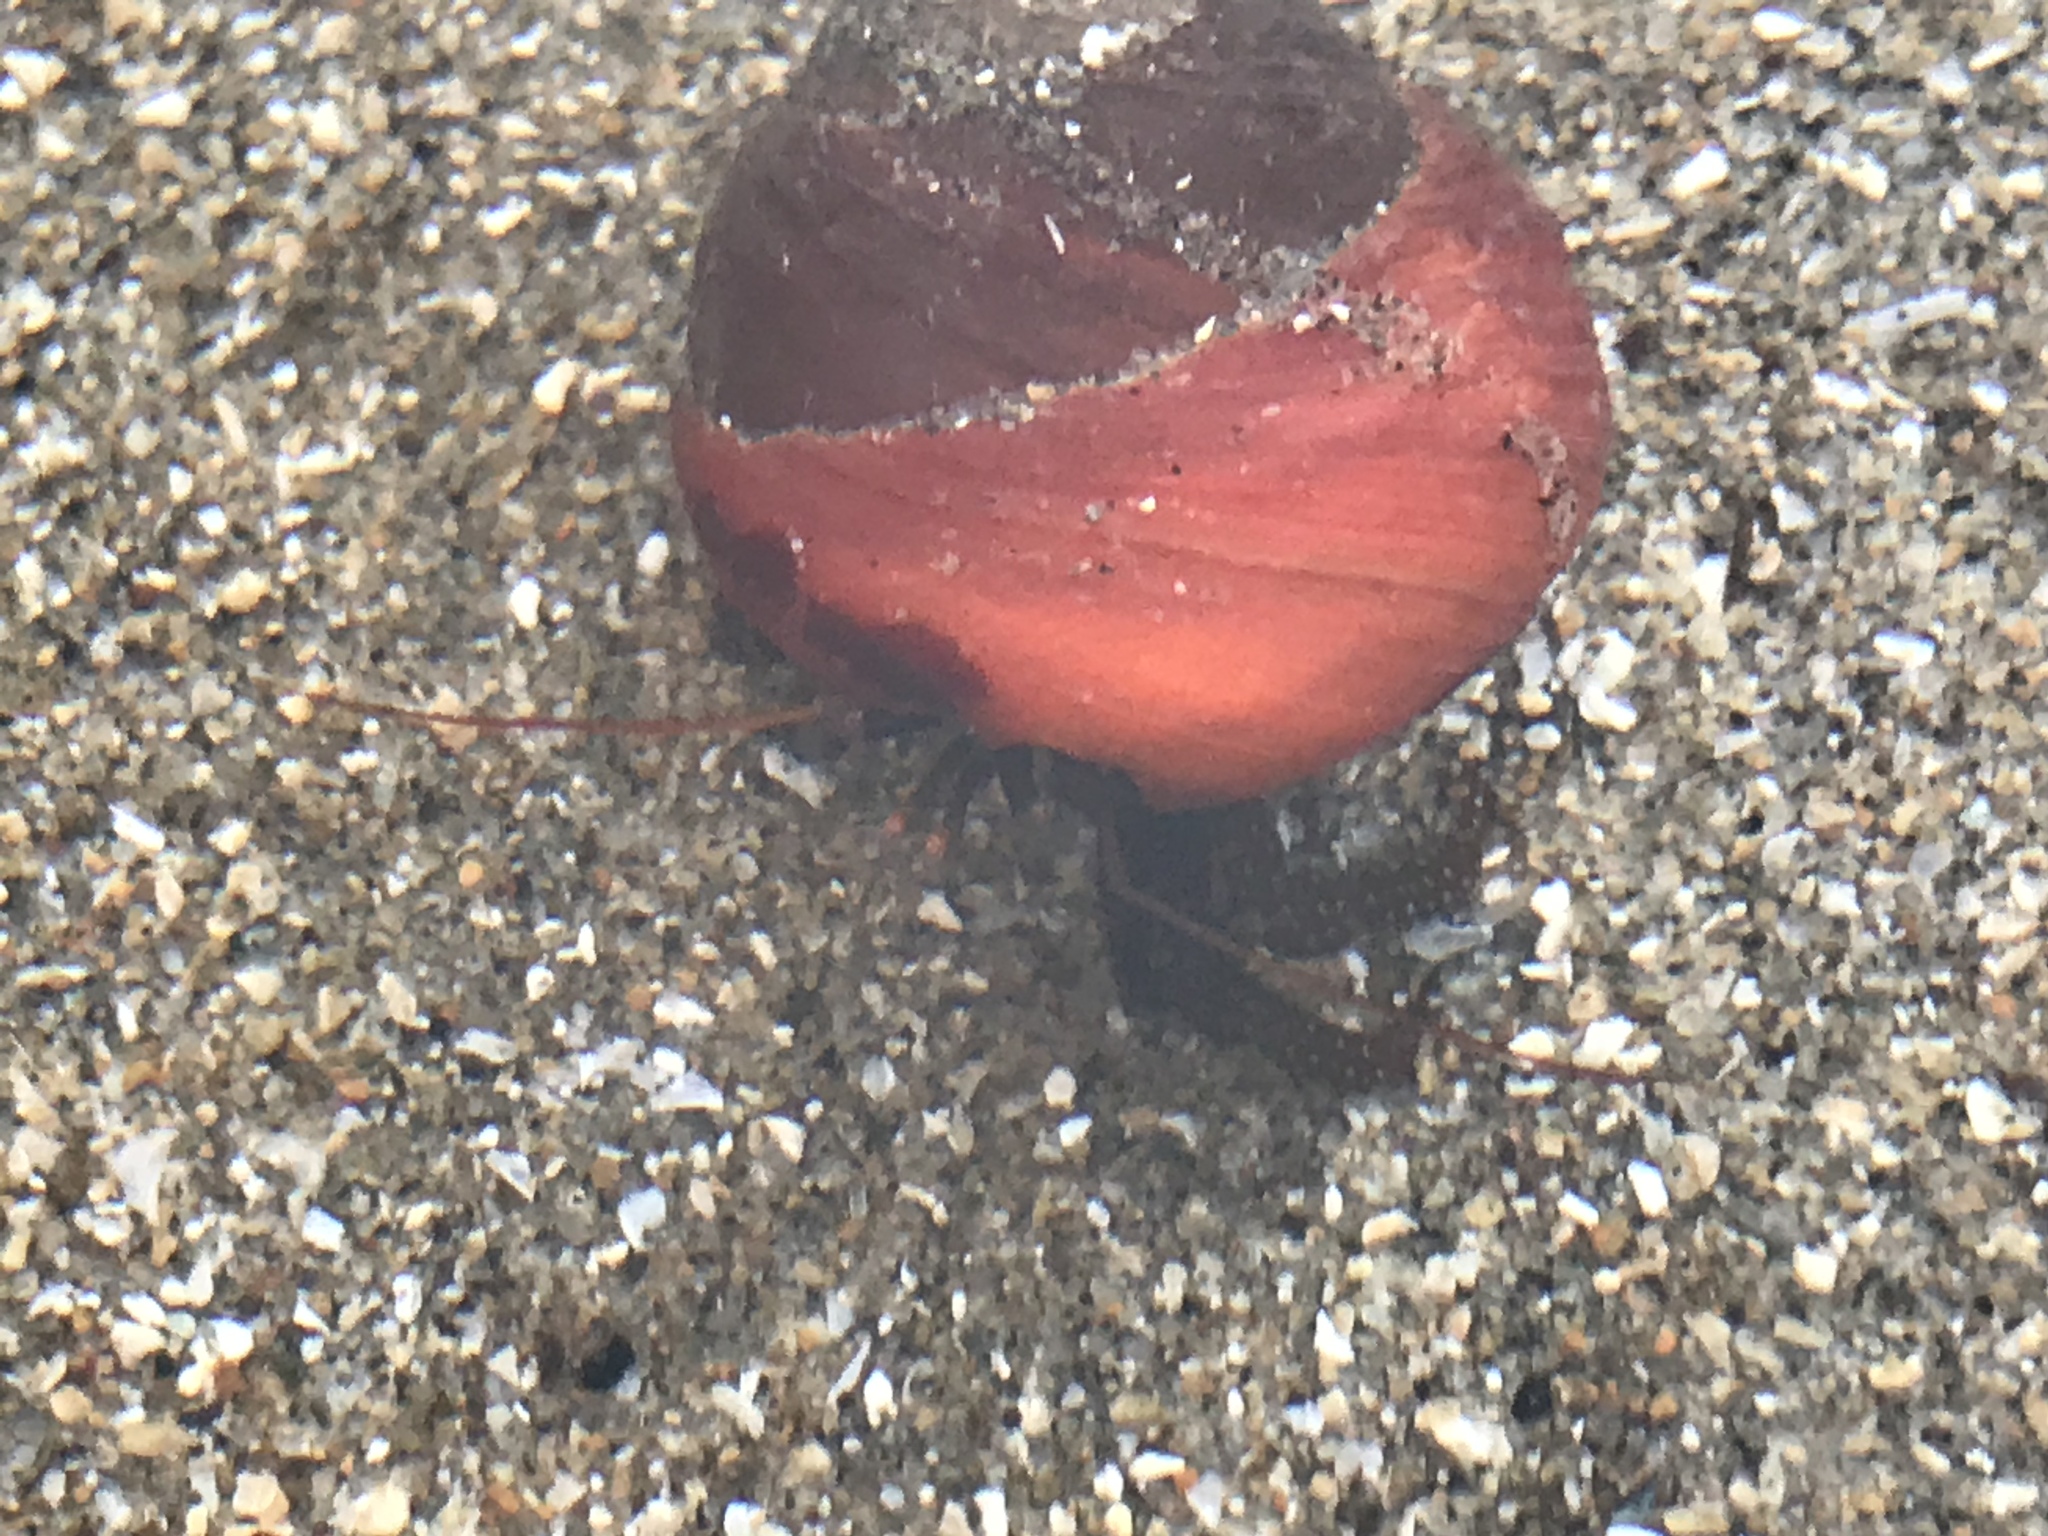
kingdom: Animalia
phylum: Arthropoda
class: Malacostraca
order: Decapoda
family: Paguridae
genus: Pagurus
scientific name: Pagurus granosimanus
